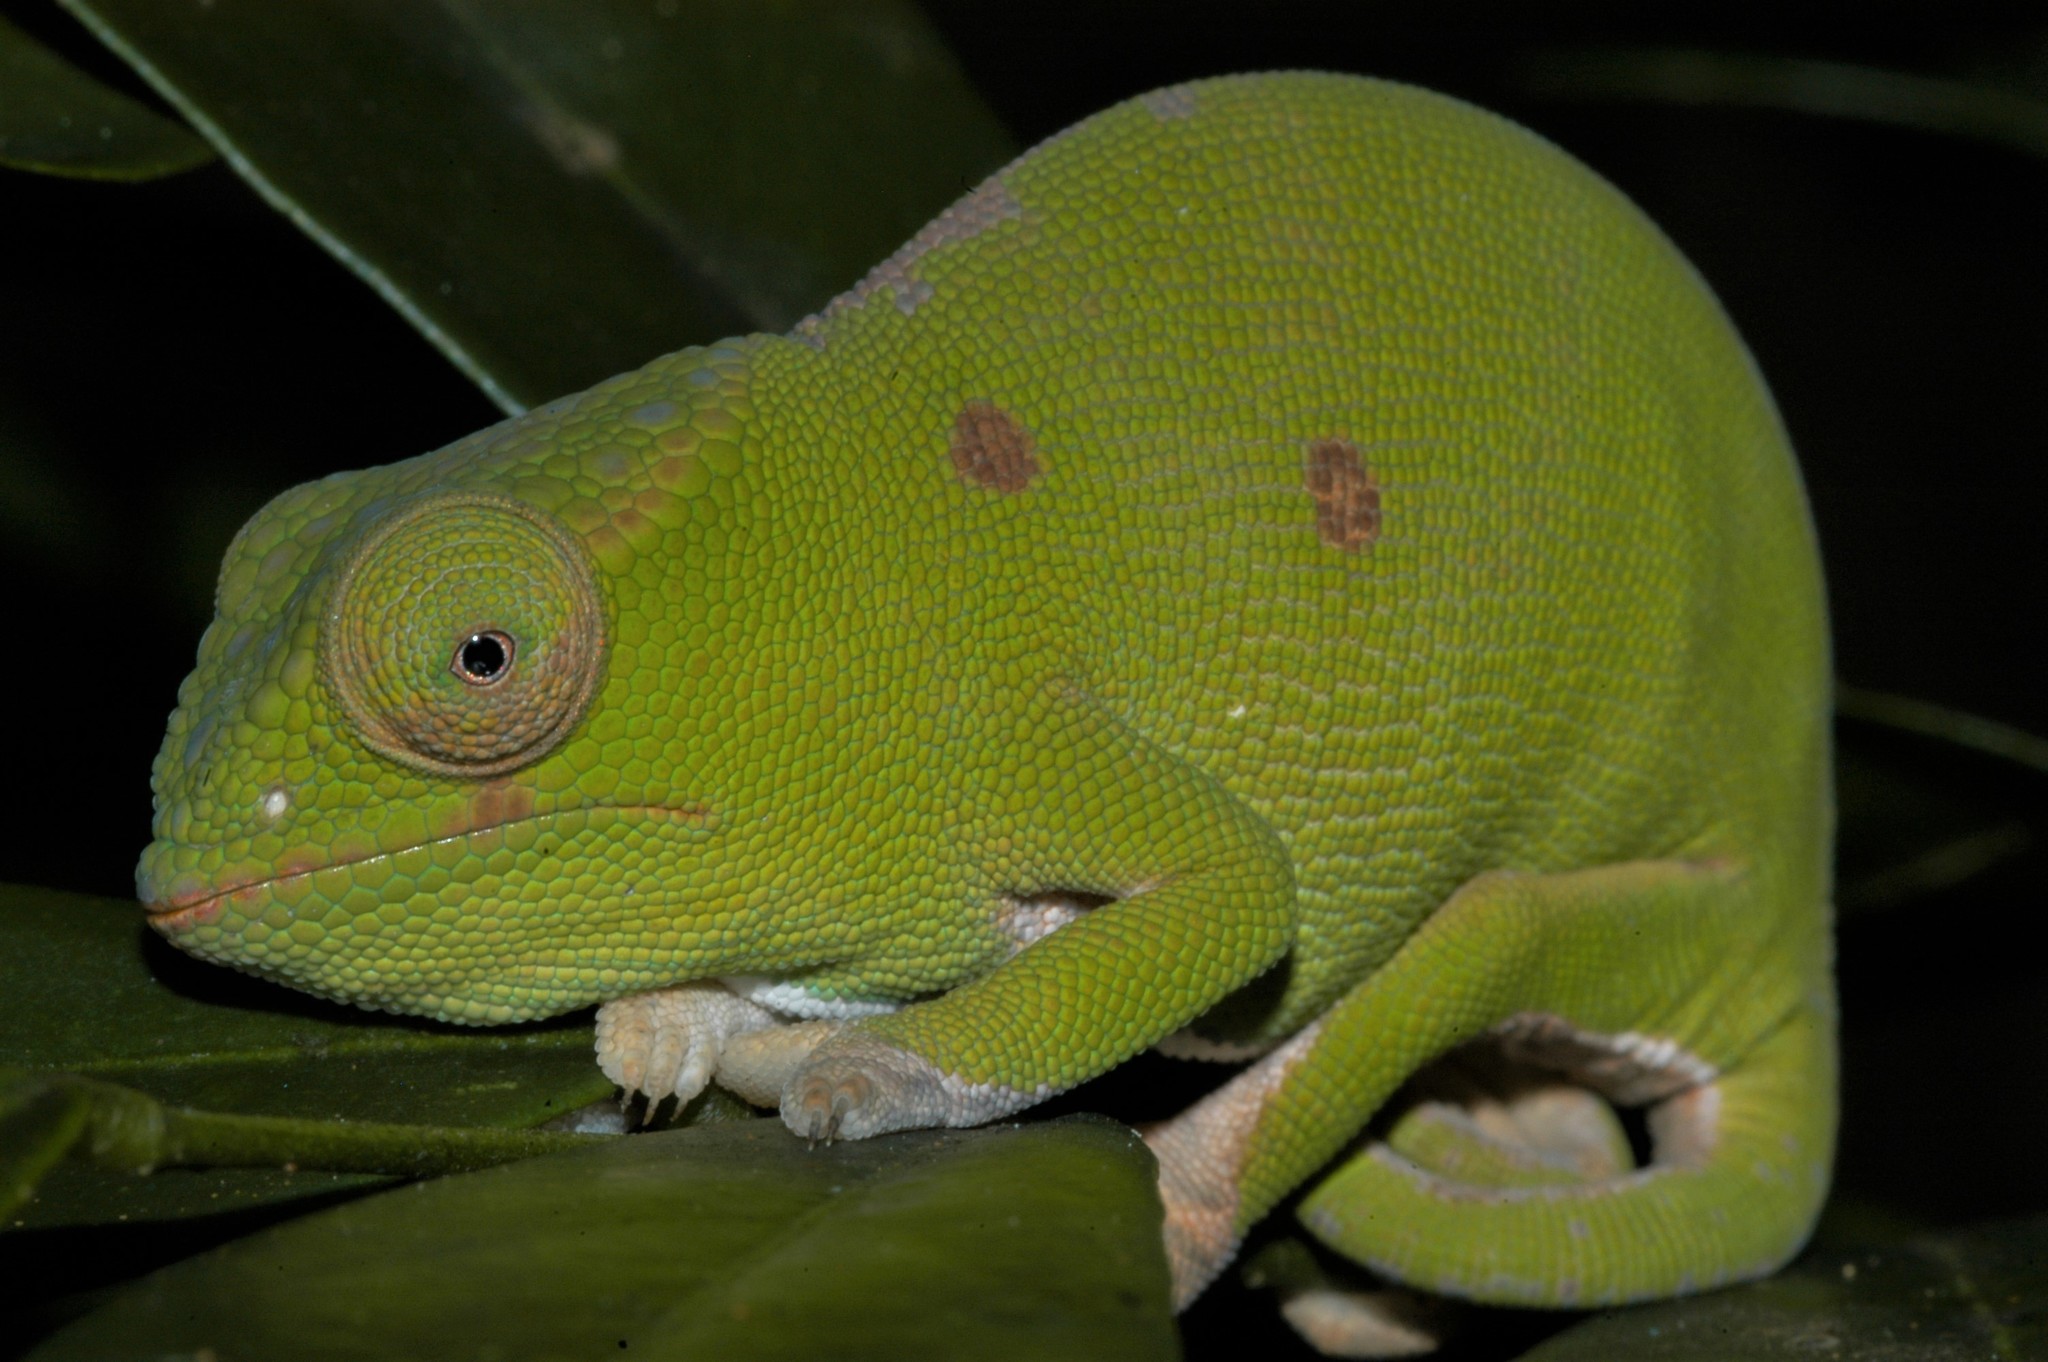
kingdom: Animalia
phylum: Chordata
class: Squamata
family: Chamaeleonidae
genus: Furcifer
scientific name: Furcifer petteri
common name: Petter's chameleon
